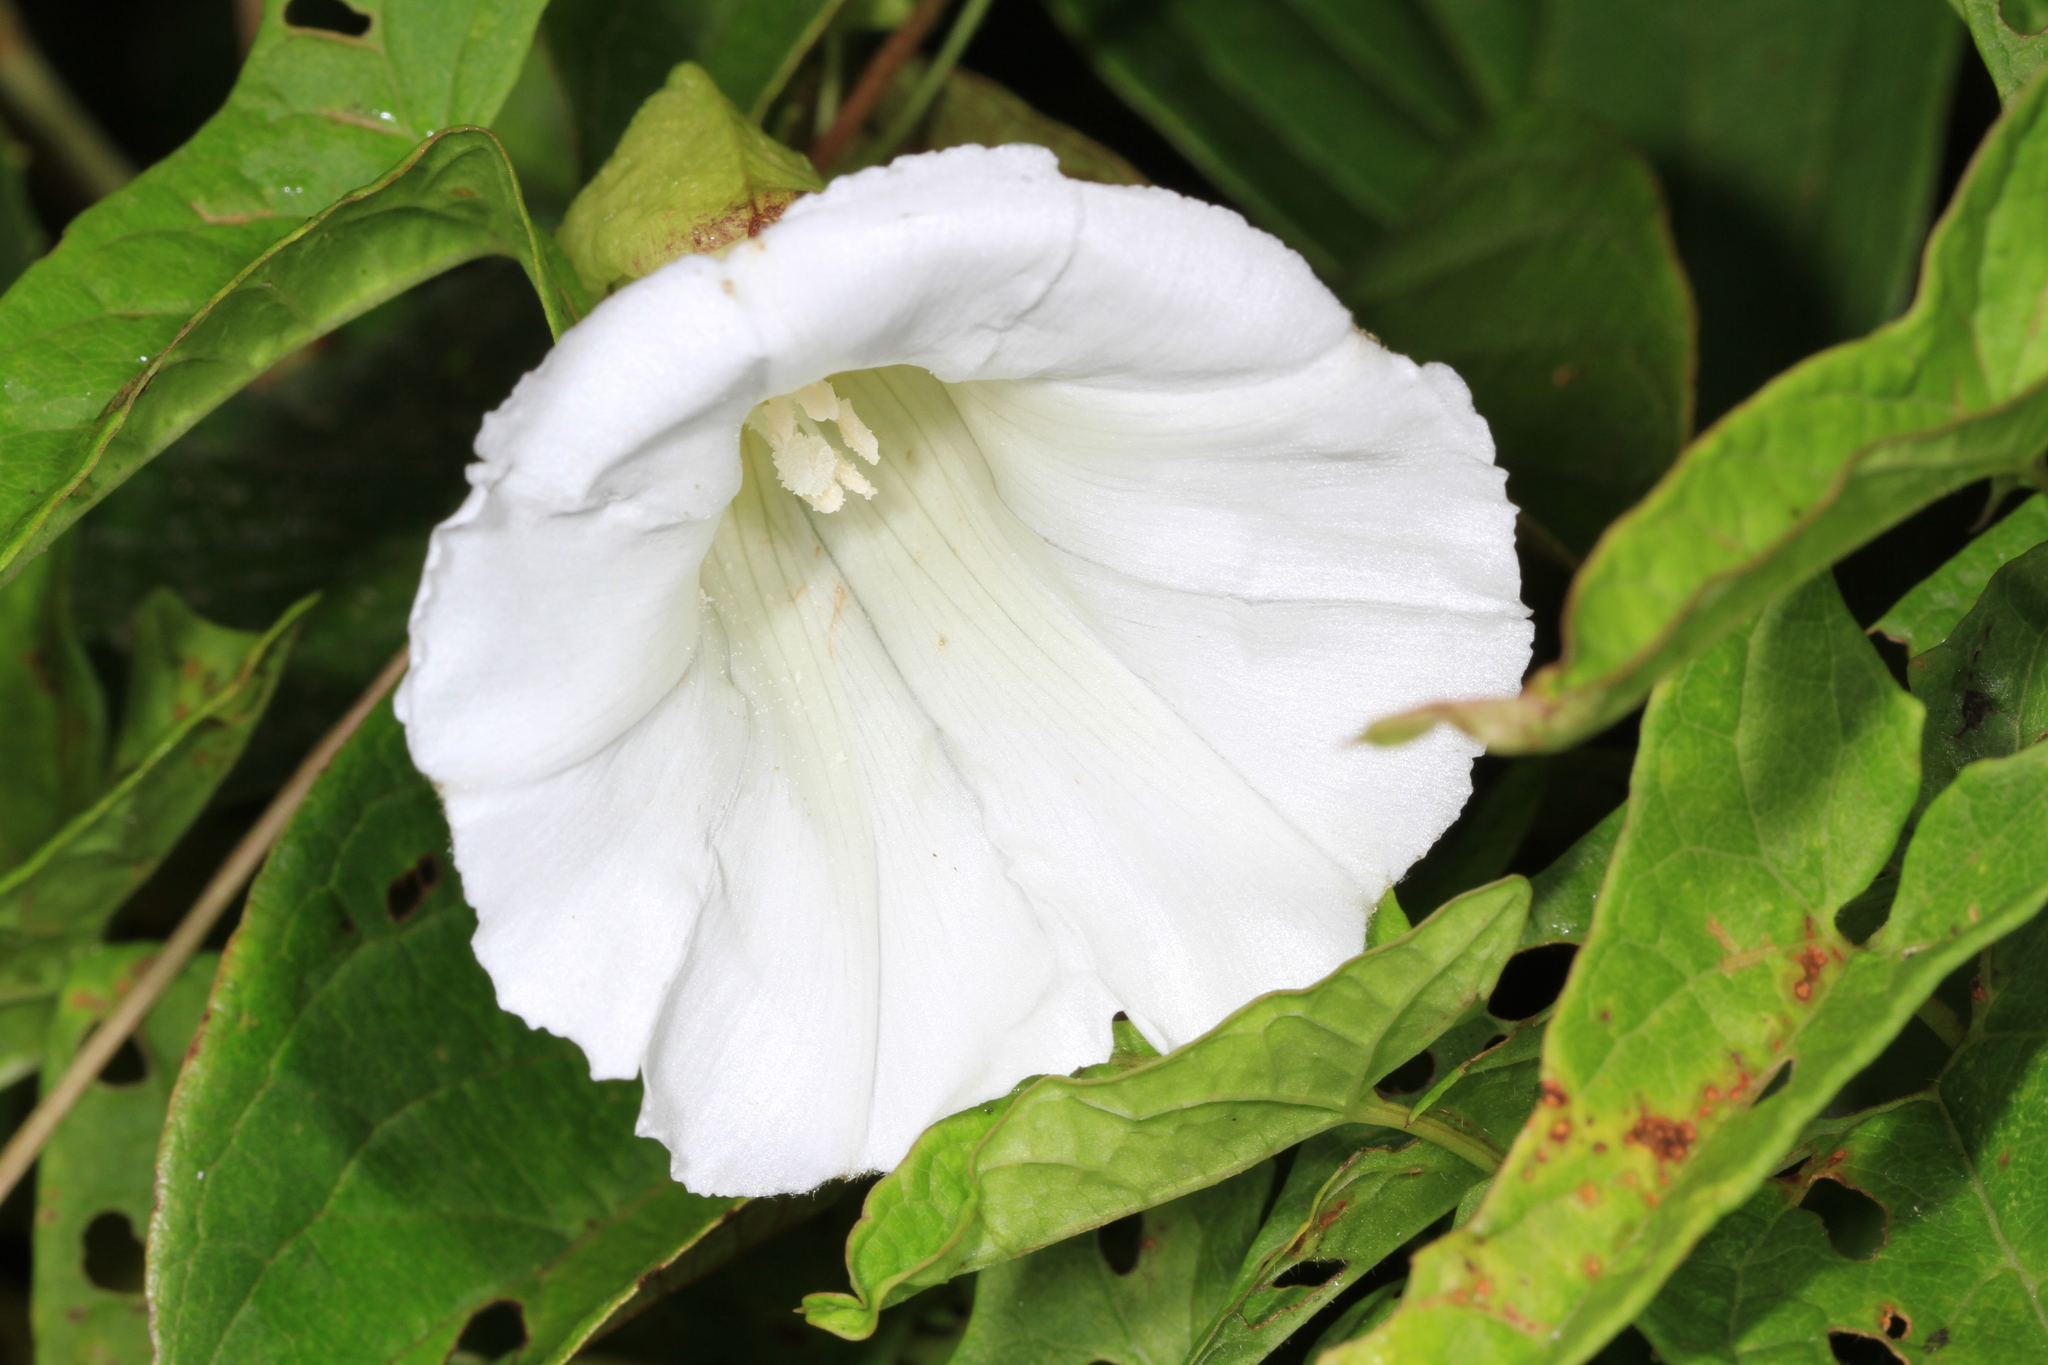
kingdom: Plantae
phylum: Tracheophyta
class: Magnoliopsida
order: Solanales
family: Convolvulaceae
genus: Calystegia
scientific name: Calystegia sepium
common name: Hedge bindweed
